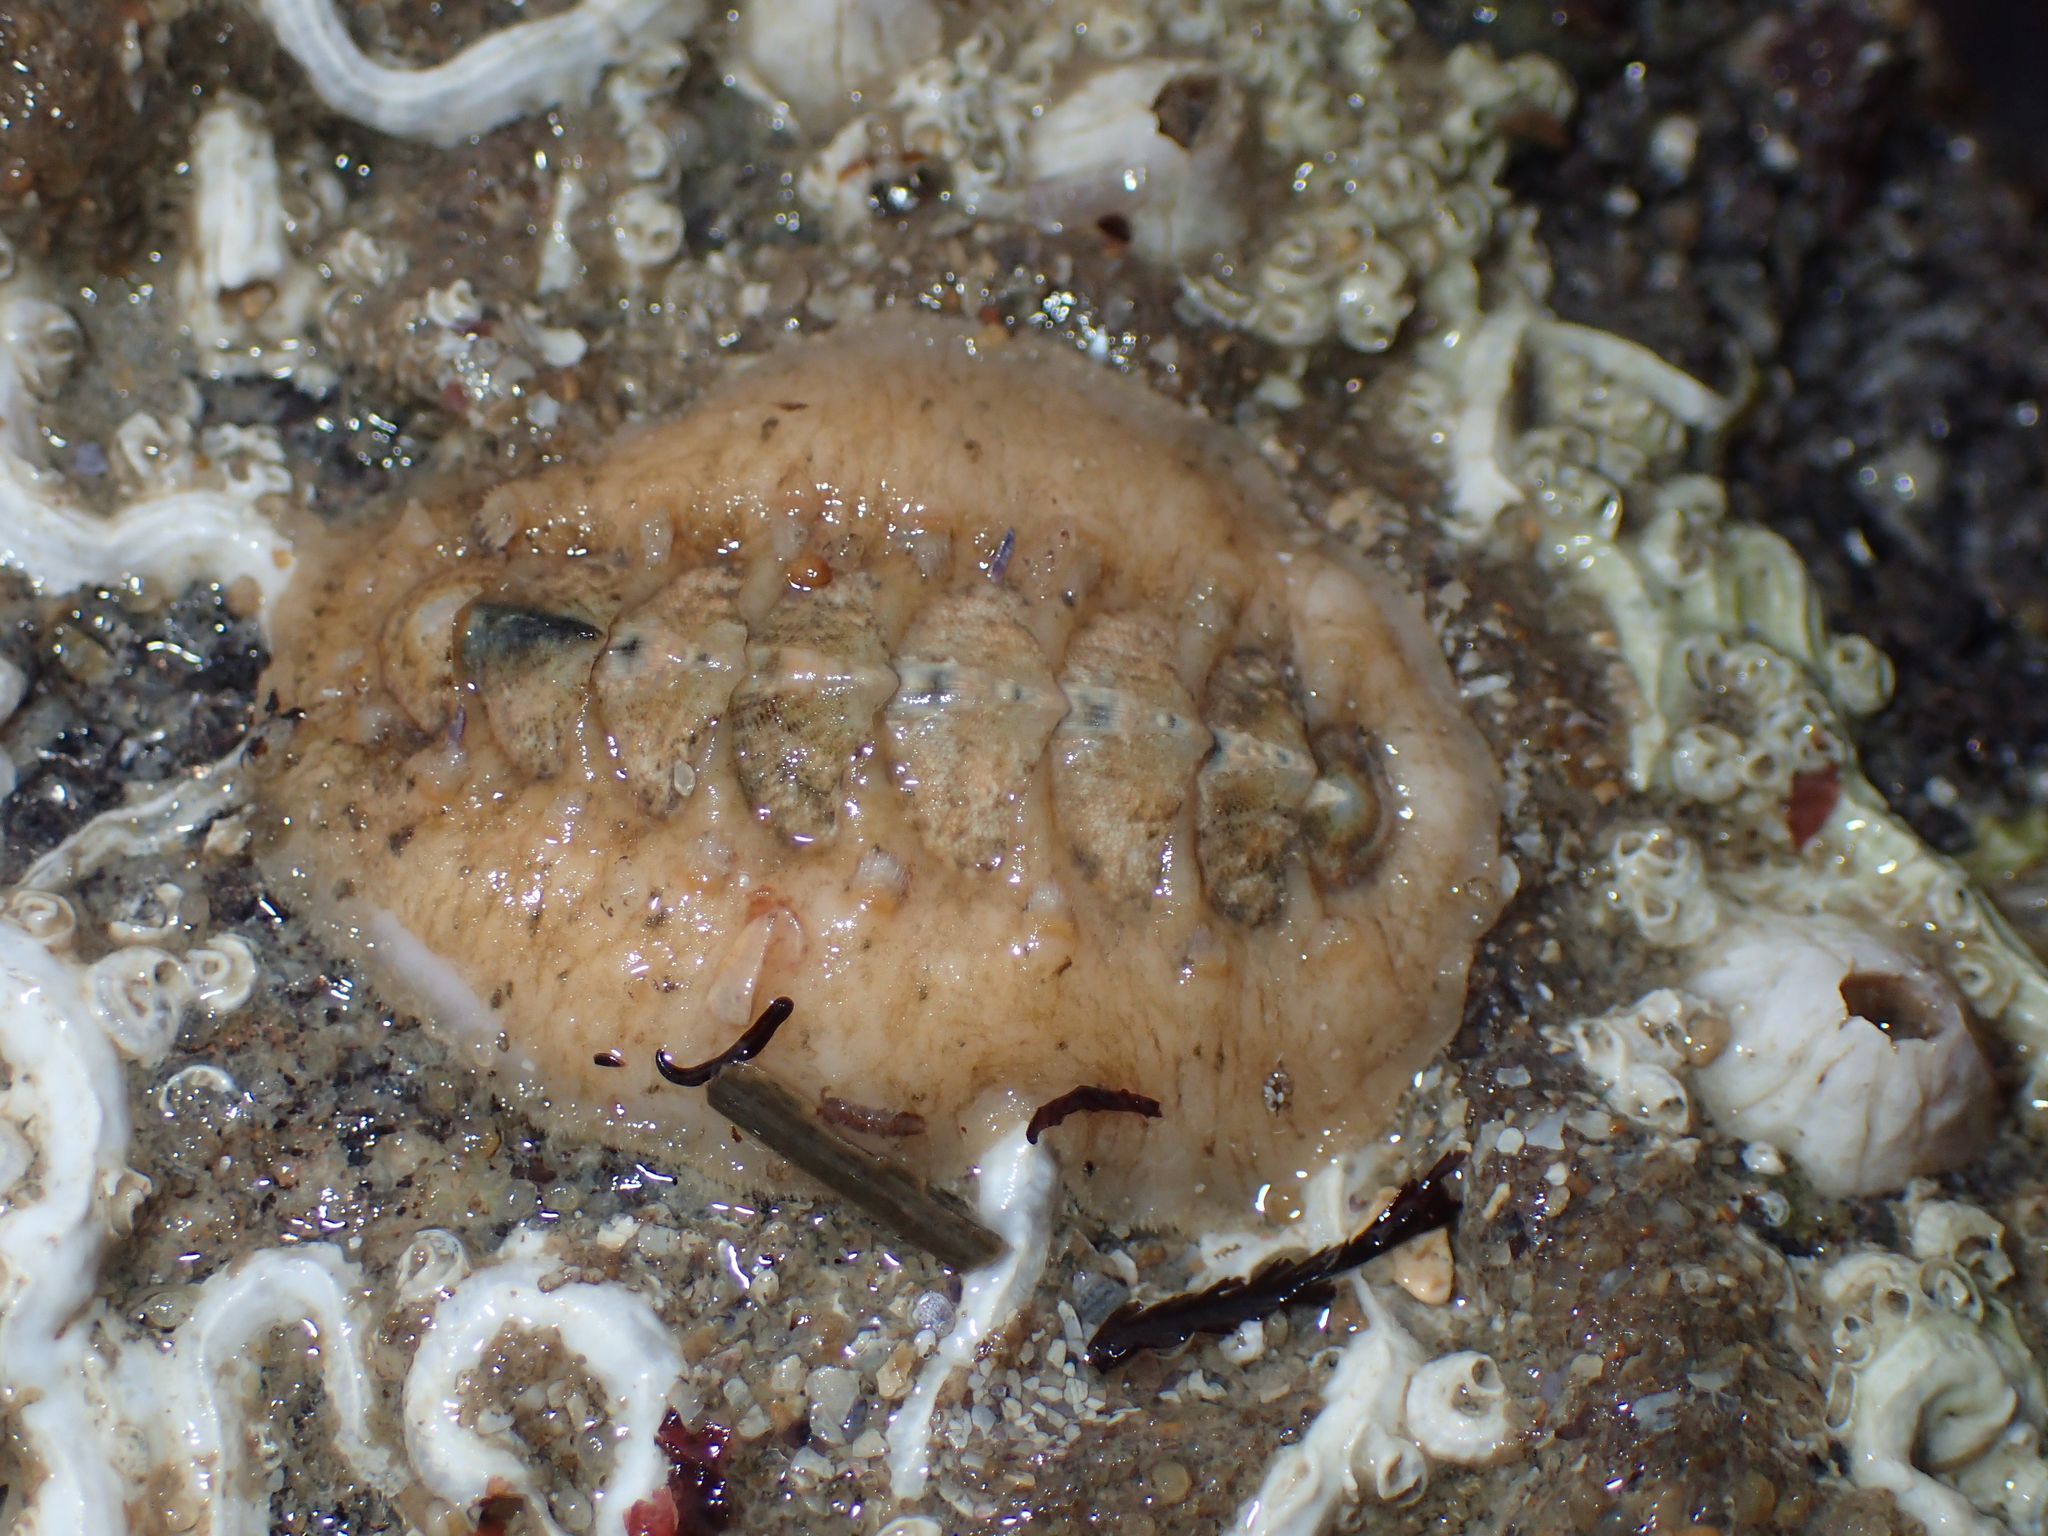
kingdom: Animalia
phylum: Mollusca
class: Polyplacophora
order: Chitonida
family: Acanthochitonidae
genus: Acanthochitona
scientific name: Acanthochitona fascicularis
